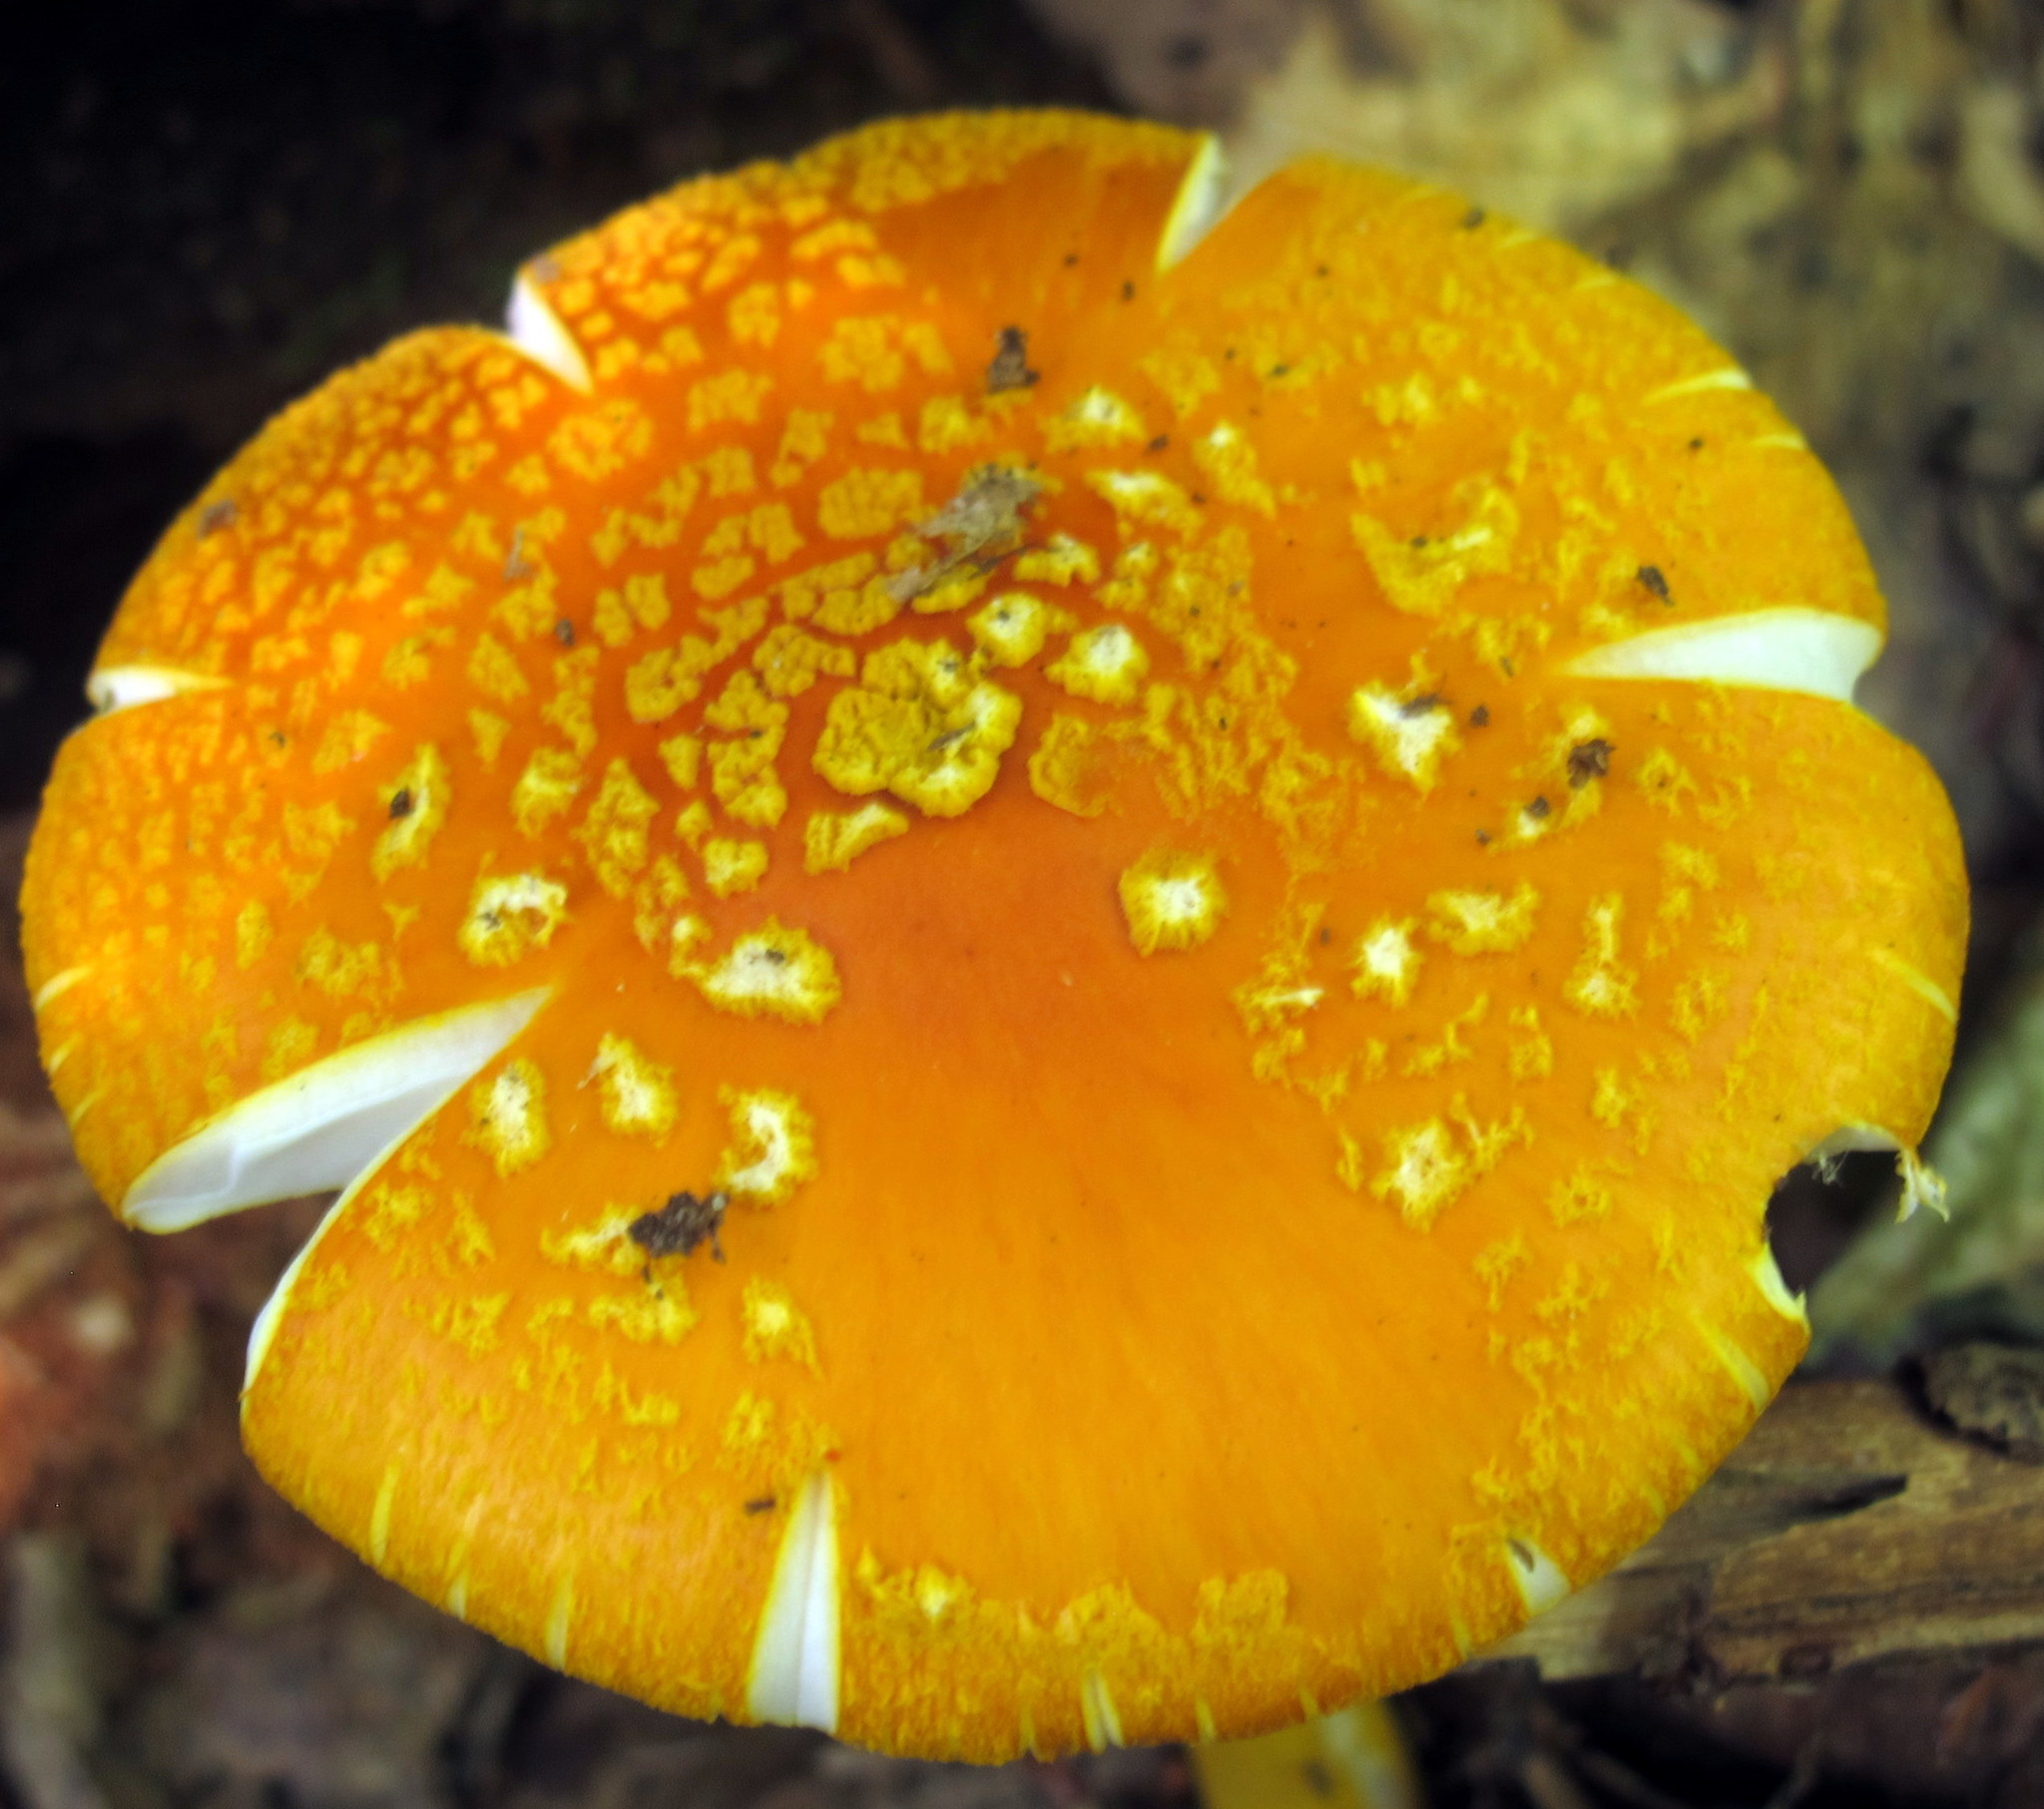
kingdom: Fungi
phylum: Basidiomycota
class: Agaricomycetes
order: Agaricales
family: Amanitaceae
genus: Amanita
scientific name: Amanita flavoconia
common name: Yellow patches
